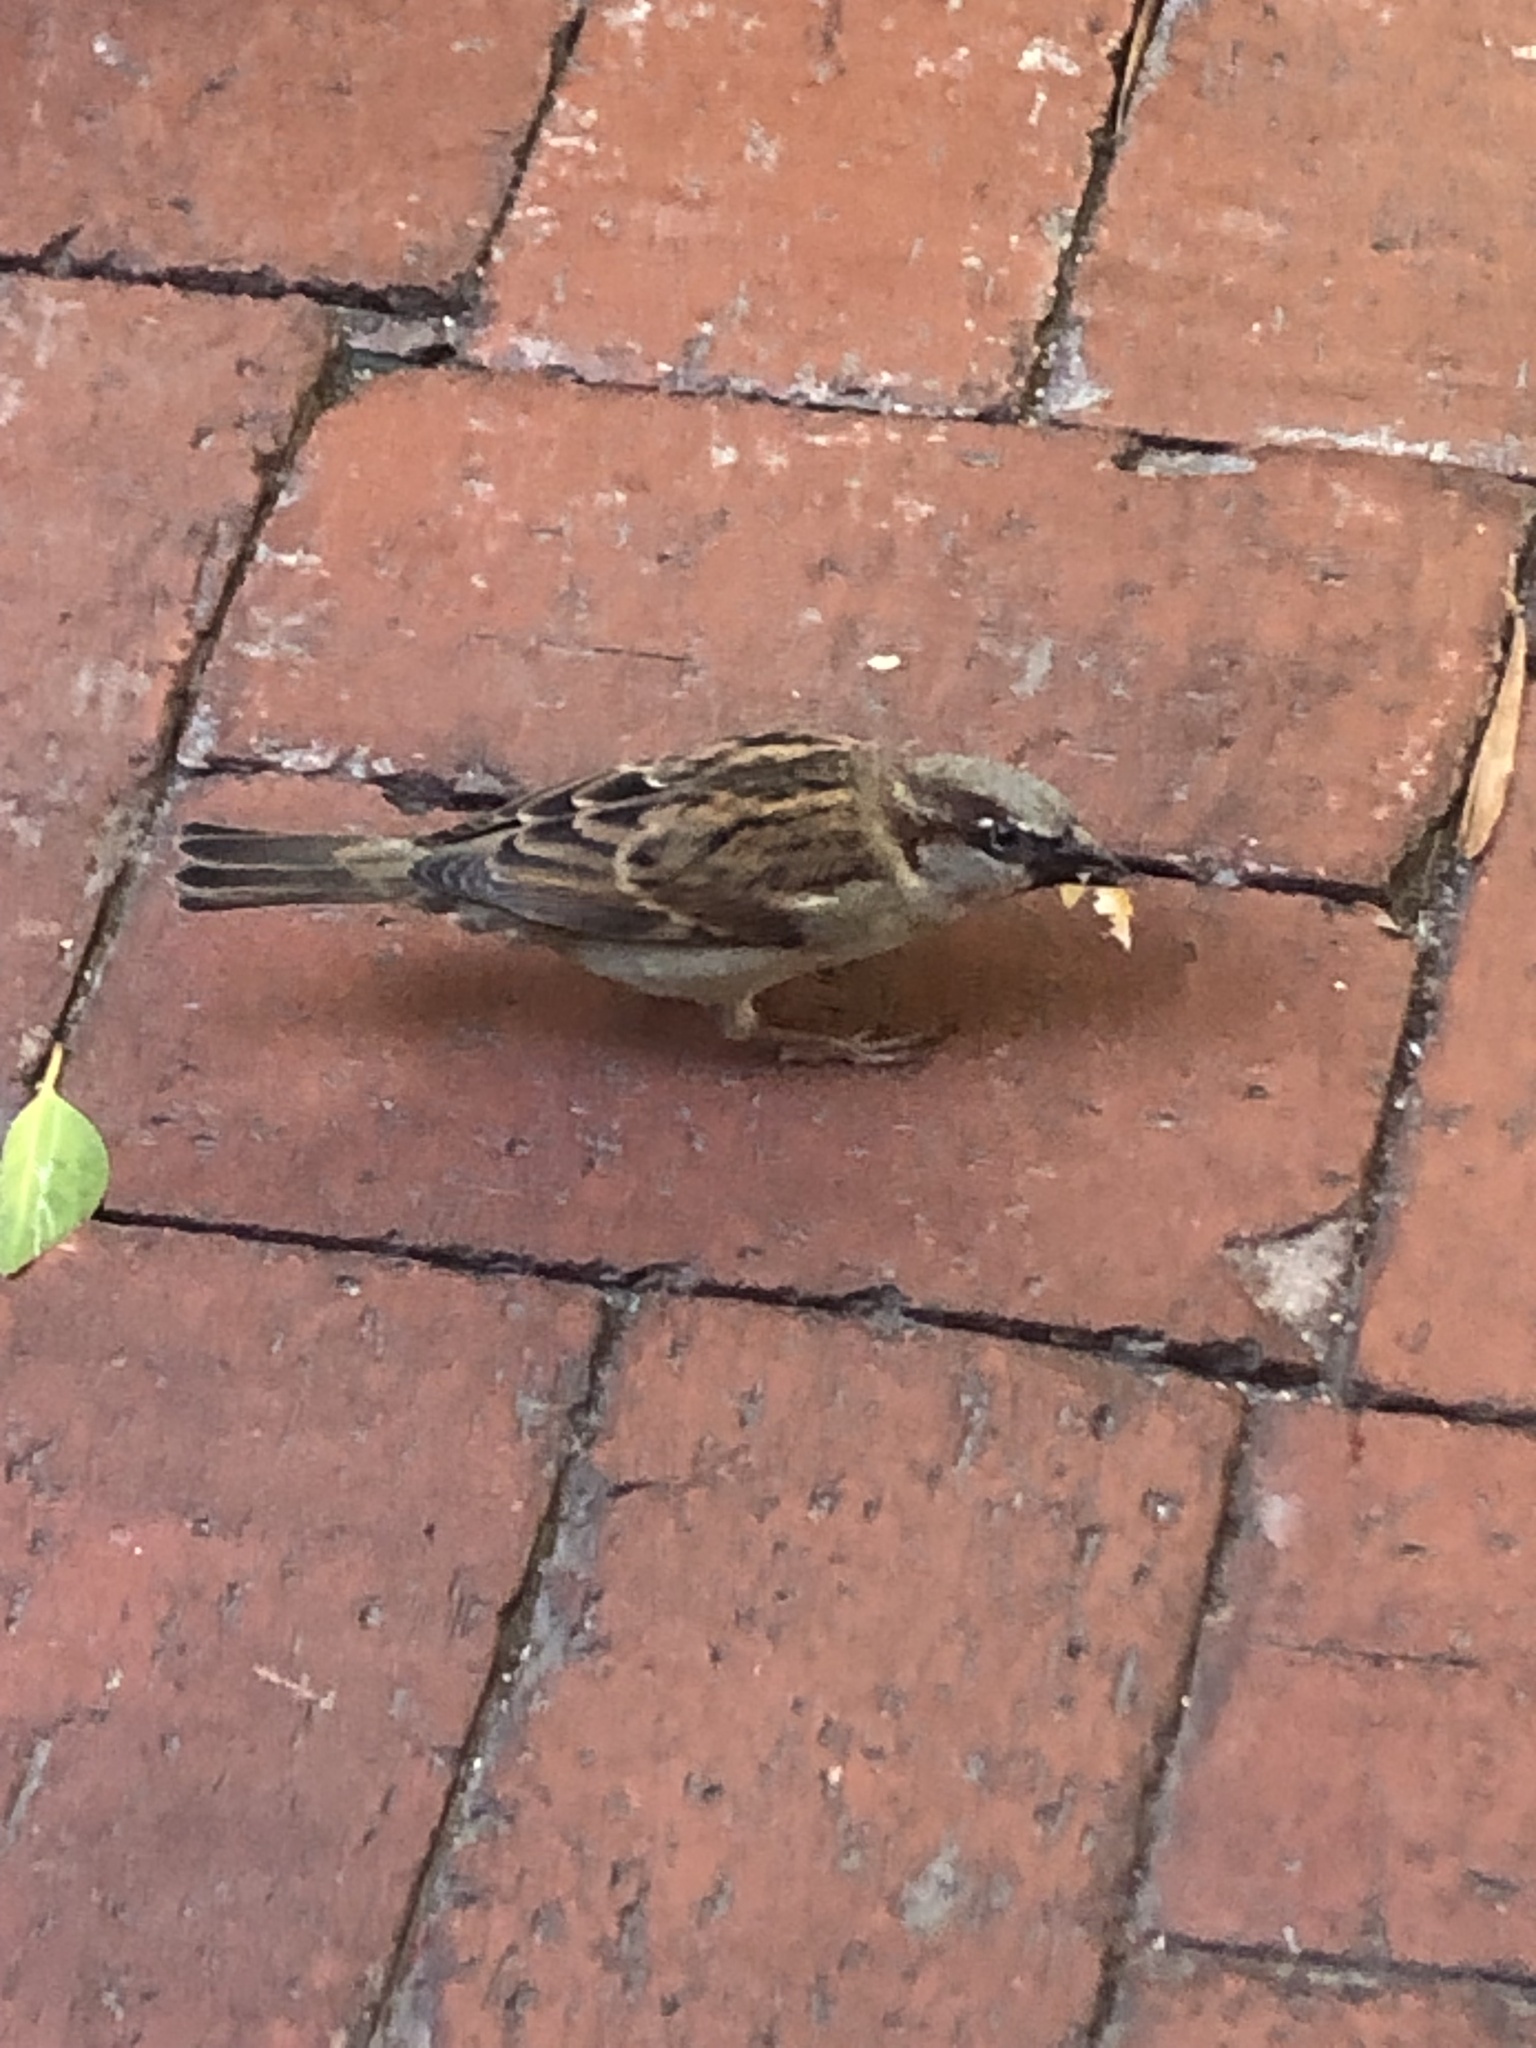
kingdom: Animalia
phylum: Chordata
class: Aves
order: Passeriformes
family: Passeridae
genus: Passer
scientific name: Passer domesticus
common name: House sparrow
